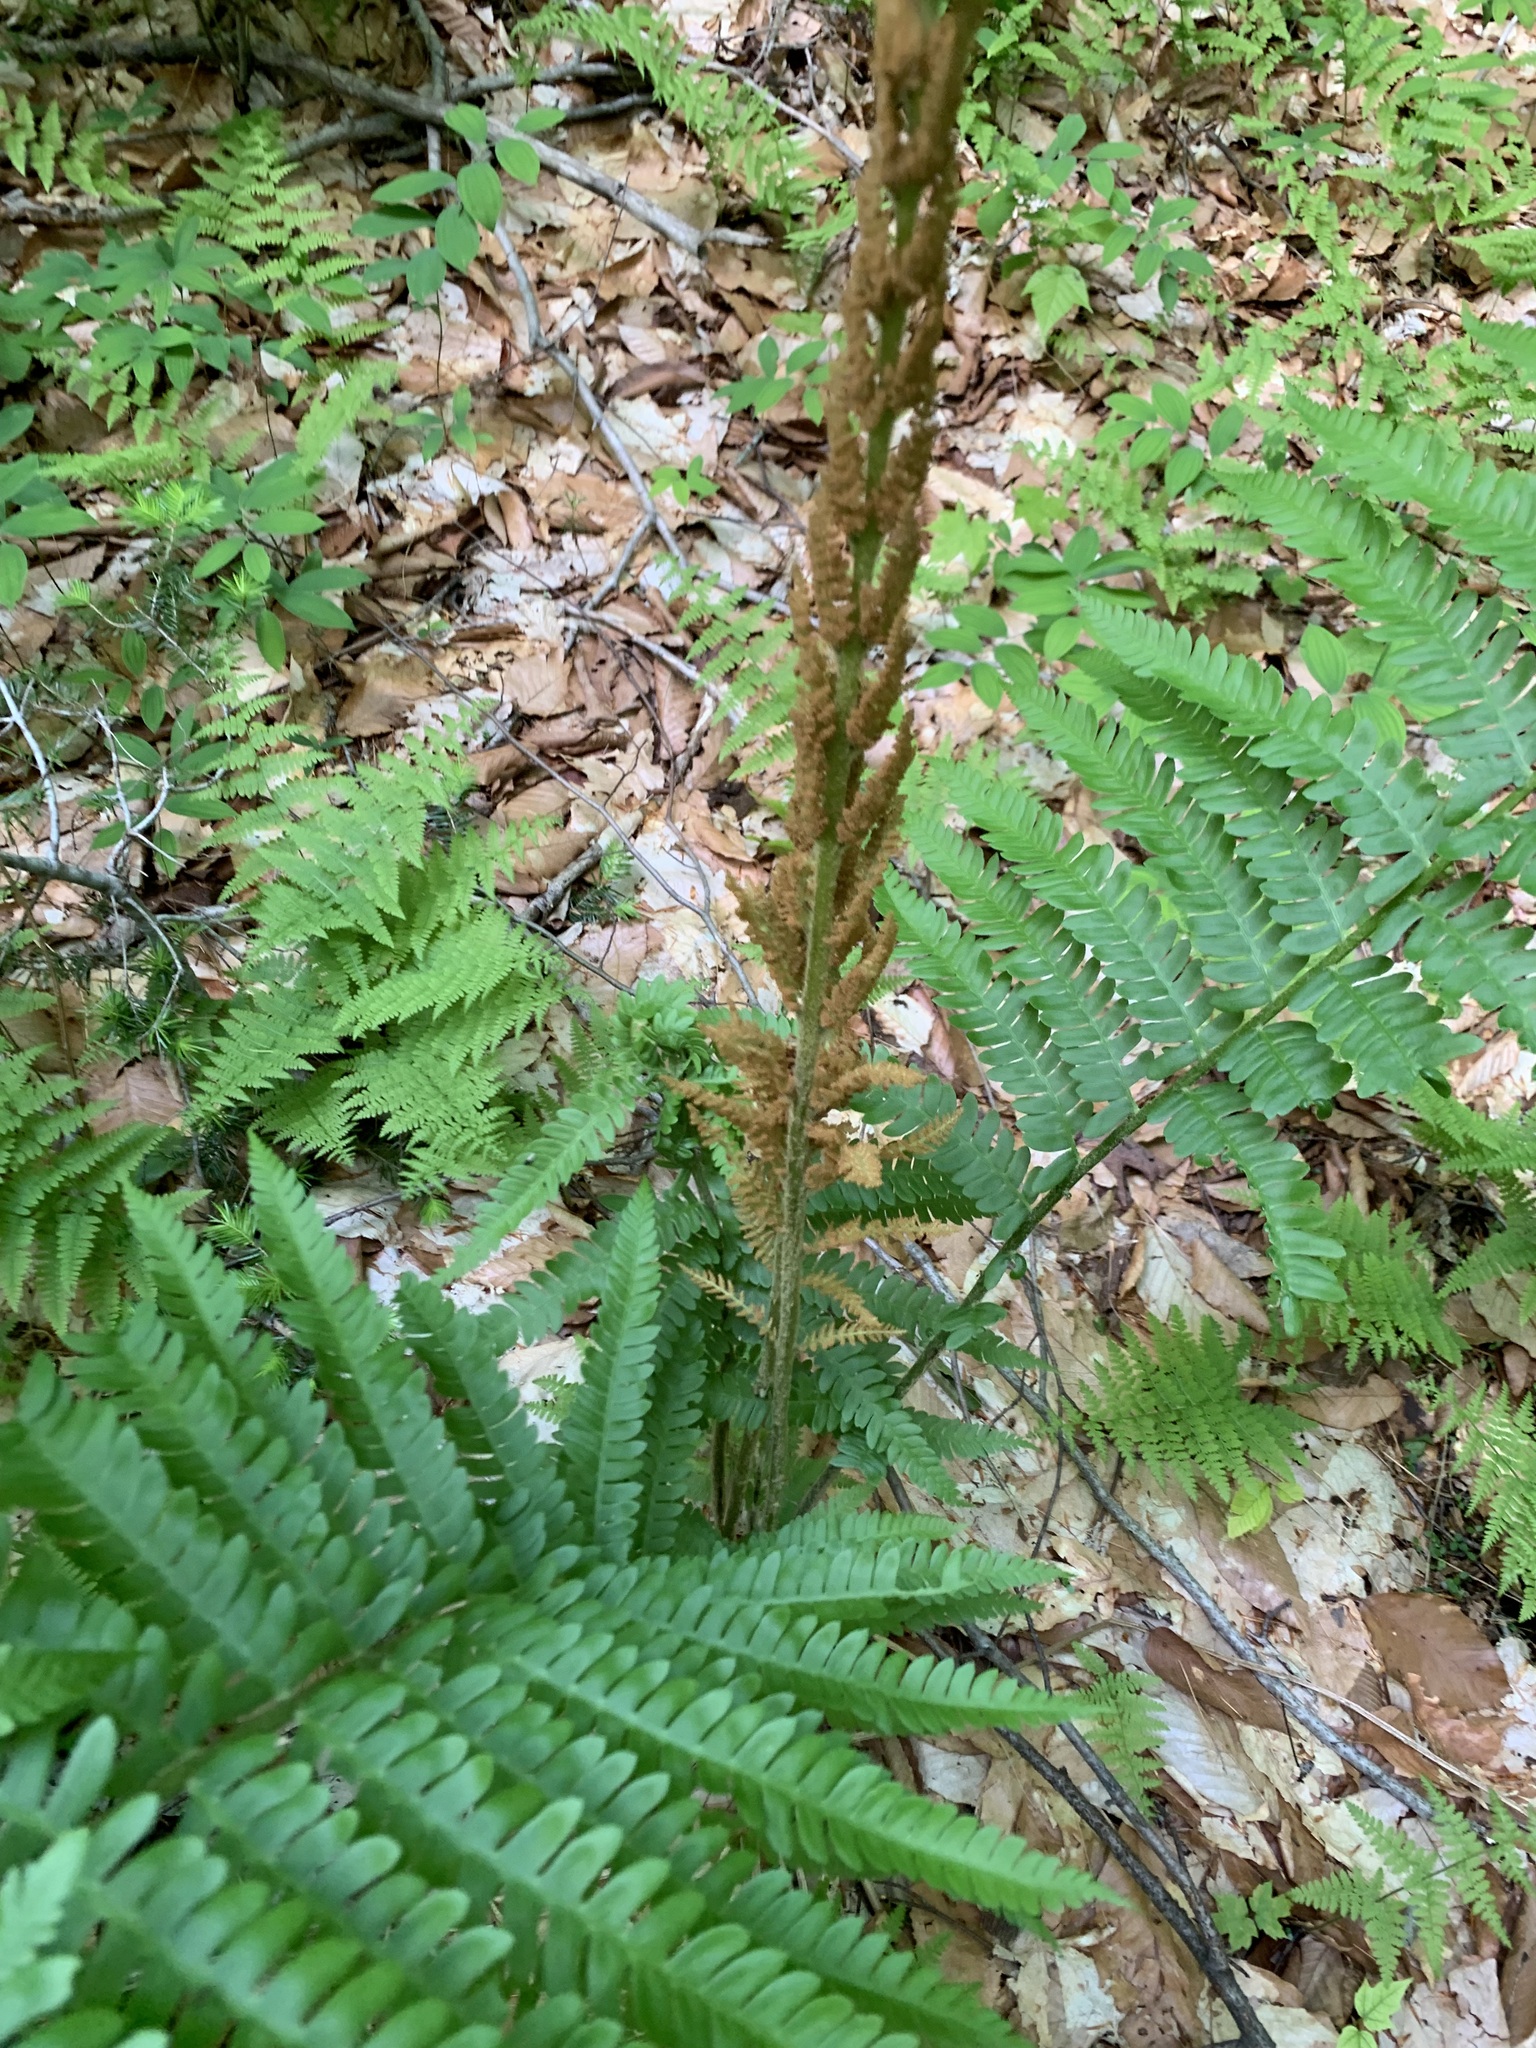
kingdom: Plantae
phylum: Tracheophyta
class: Polypodiopsida
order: Osmundales
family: Osmundaceae
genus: Osmundastrum
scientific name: Osmundastrum cinnamomeum
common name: Cinnamon fern
